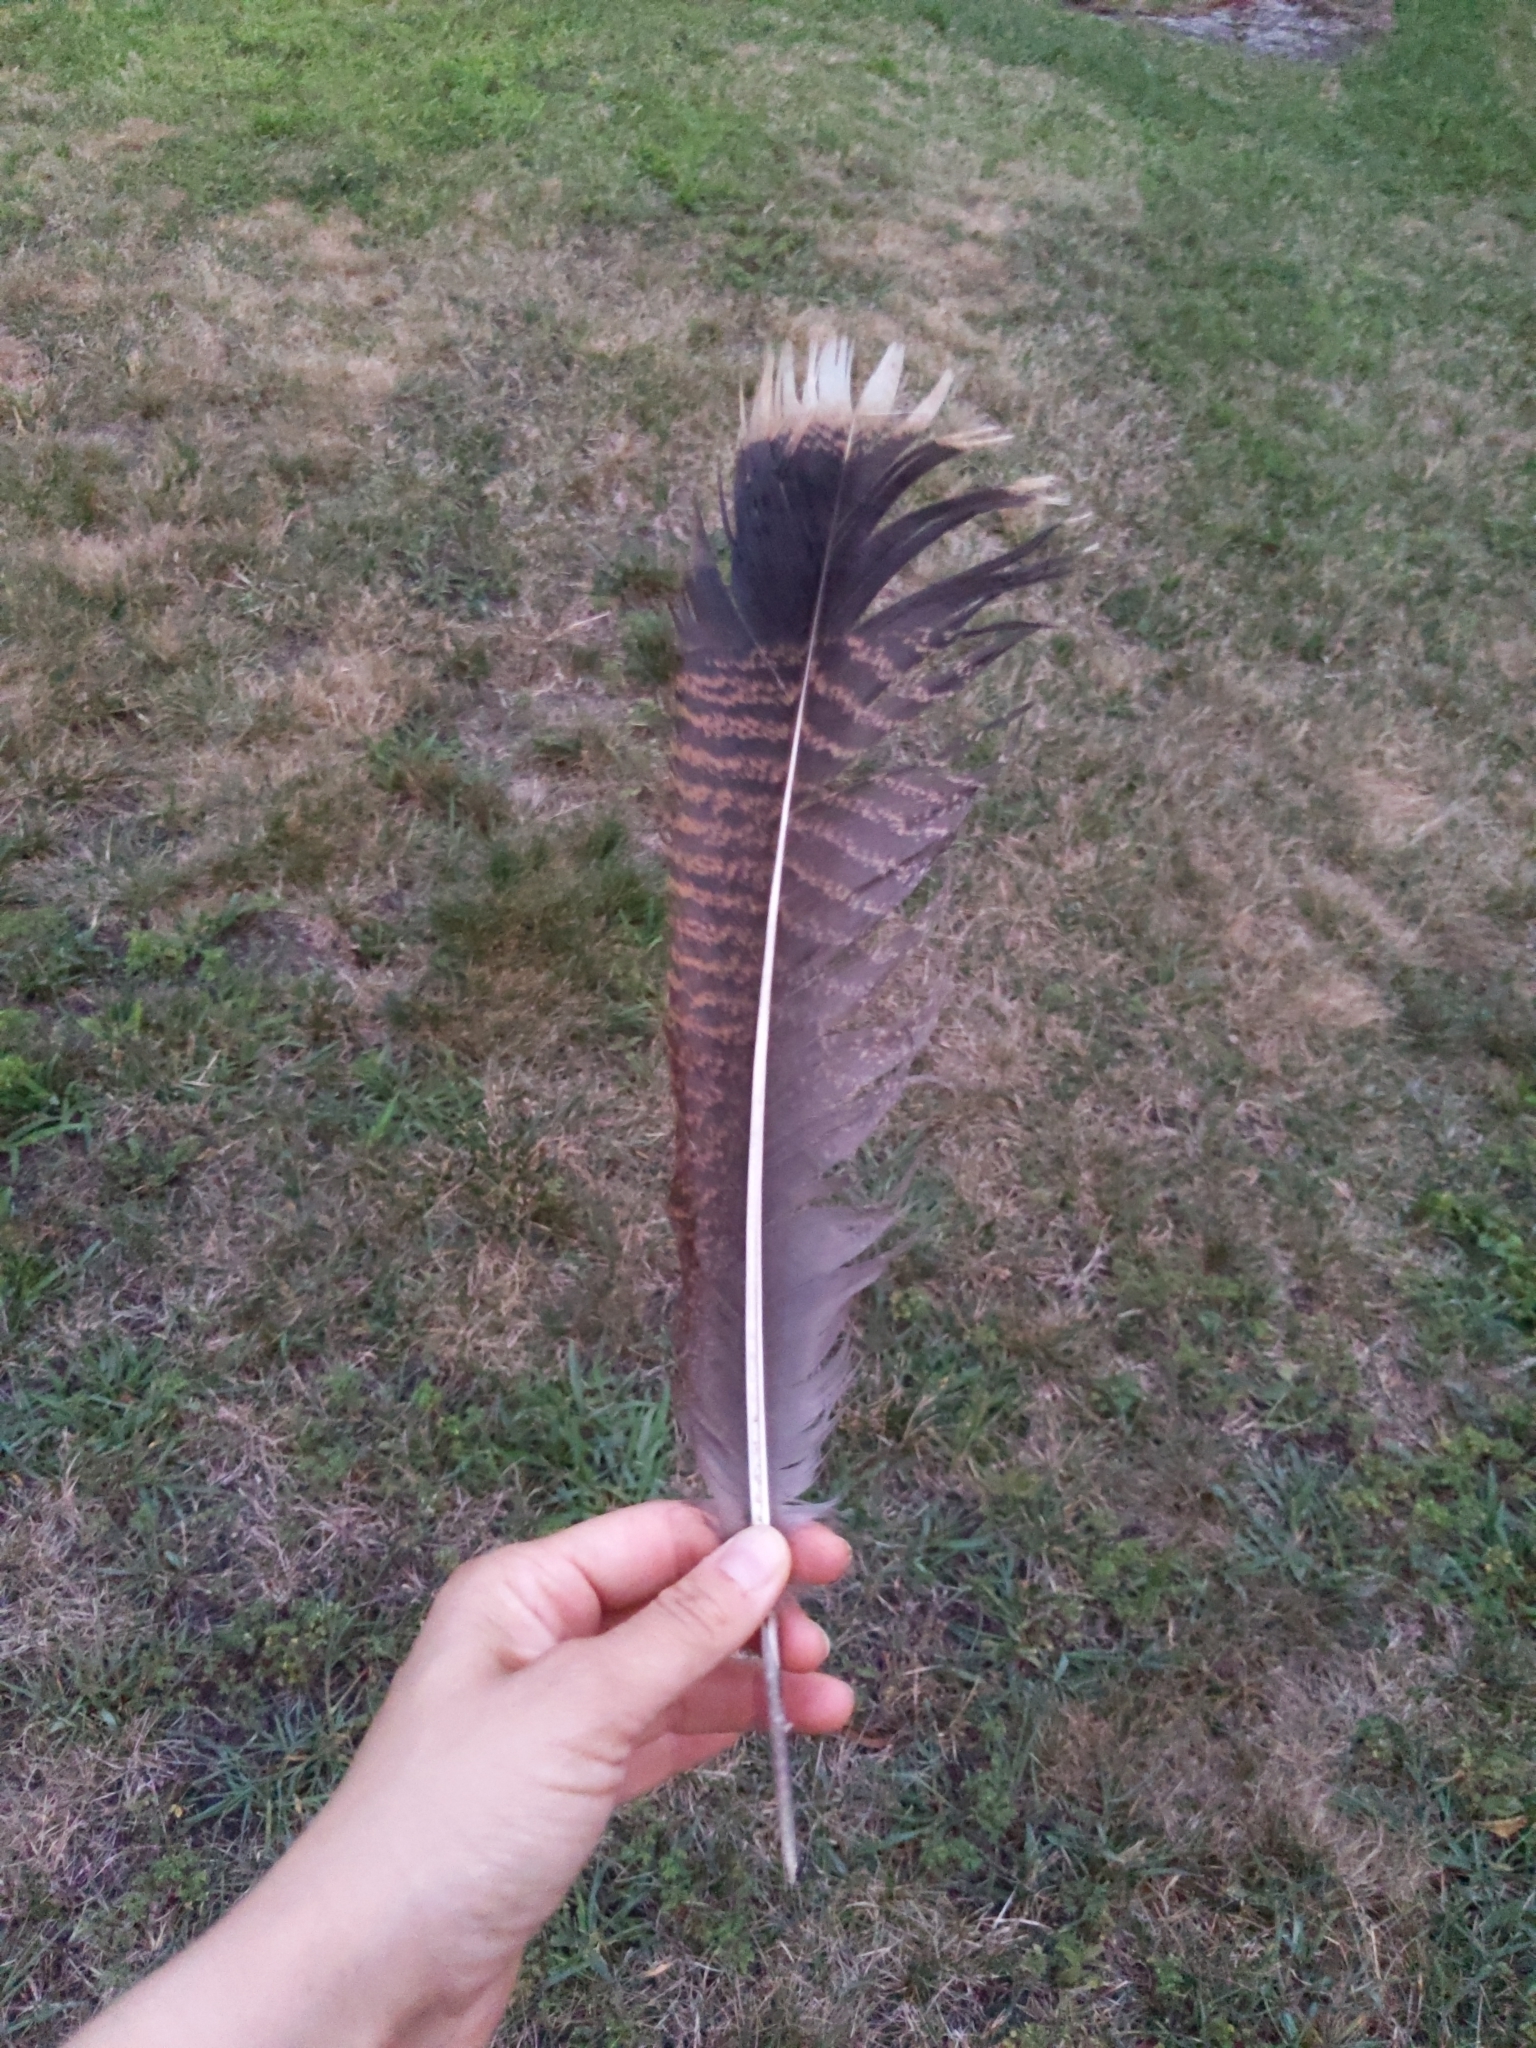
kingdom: Animalia
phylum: Chordata
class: Aves
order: Galliformes
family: Phasianidae
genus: Meleagris
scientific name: Meleagris gallopavo
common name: Wild turkey
